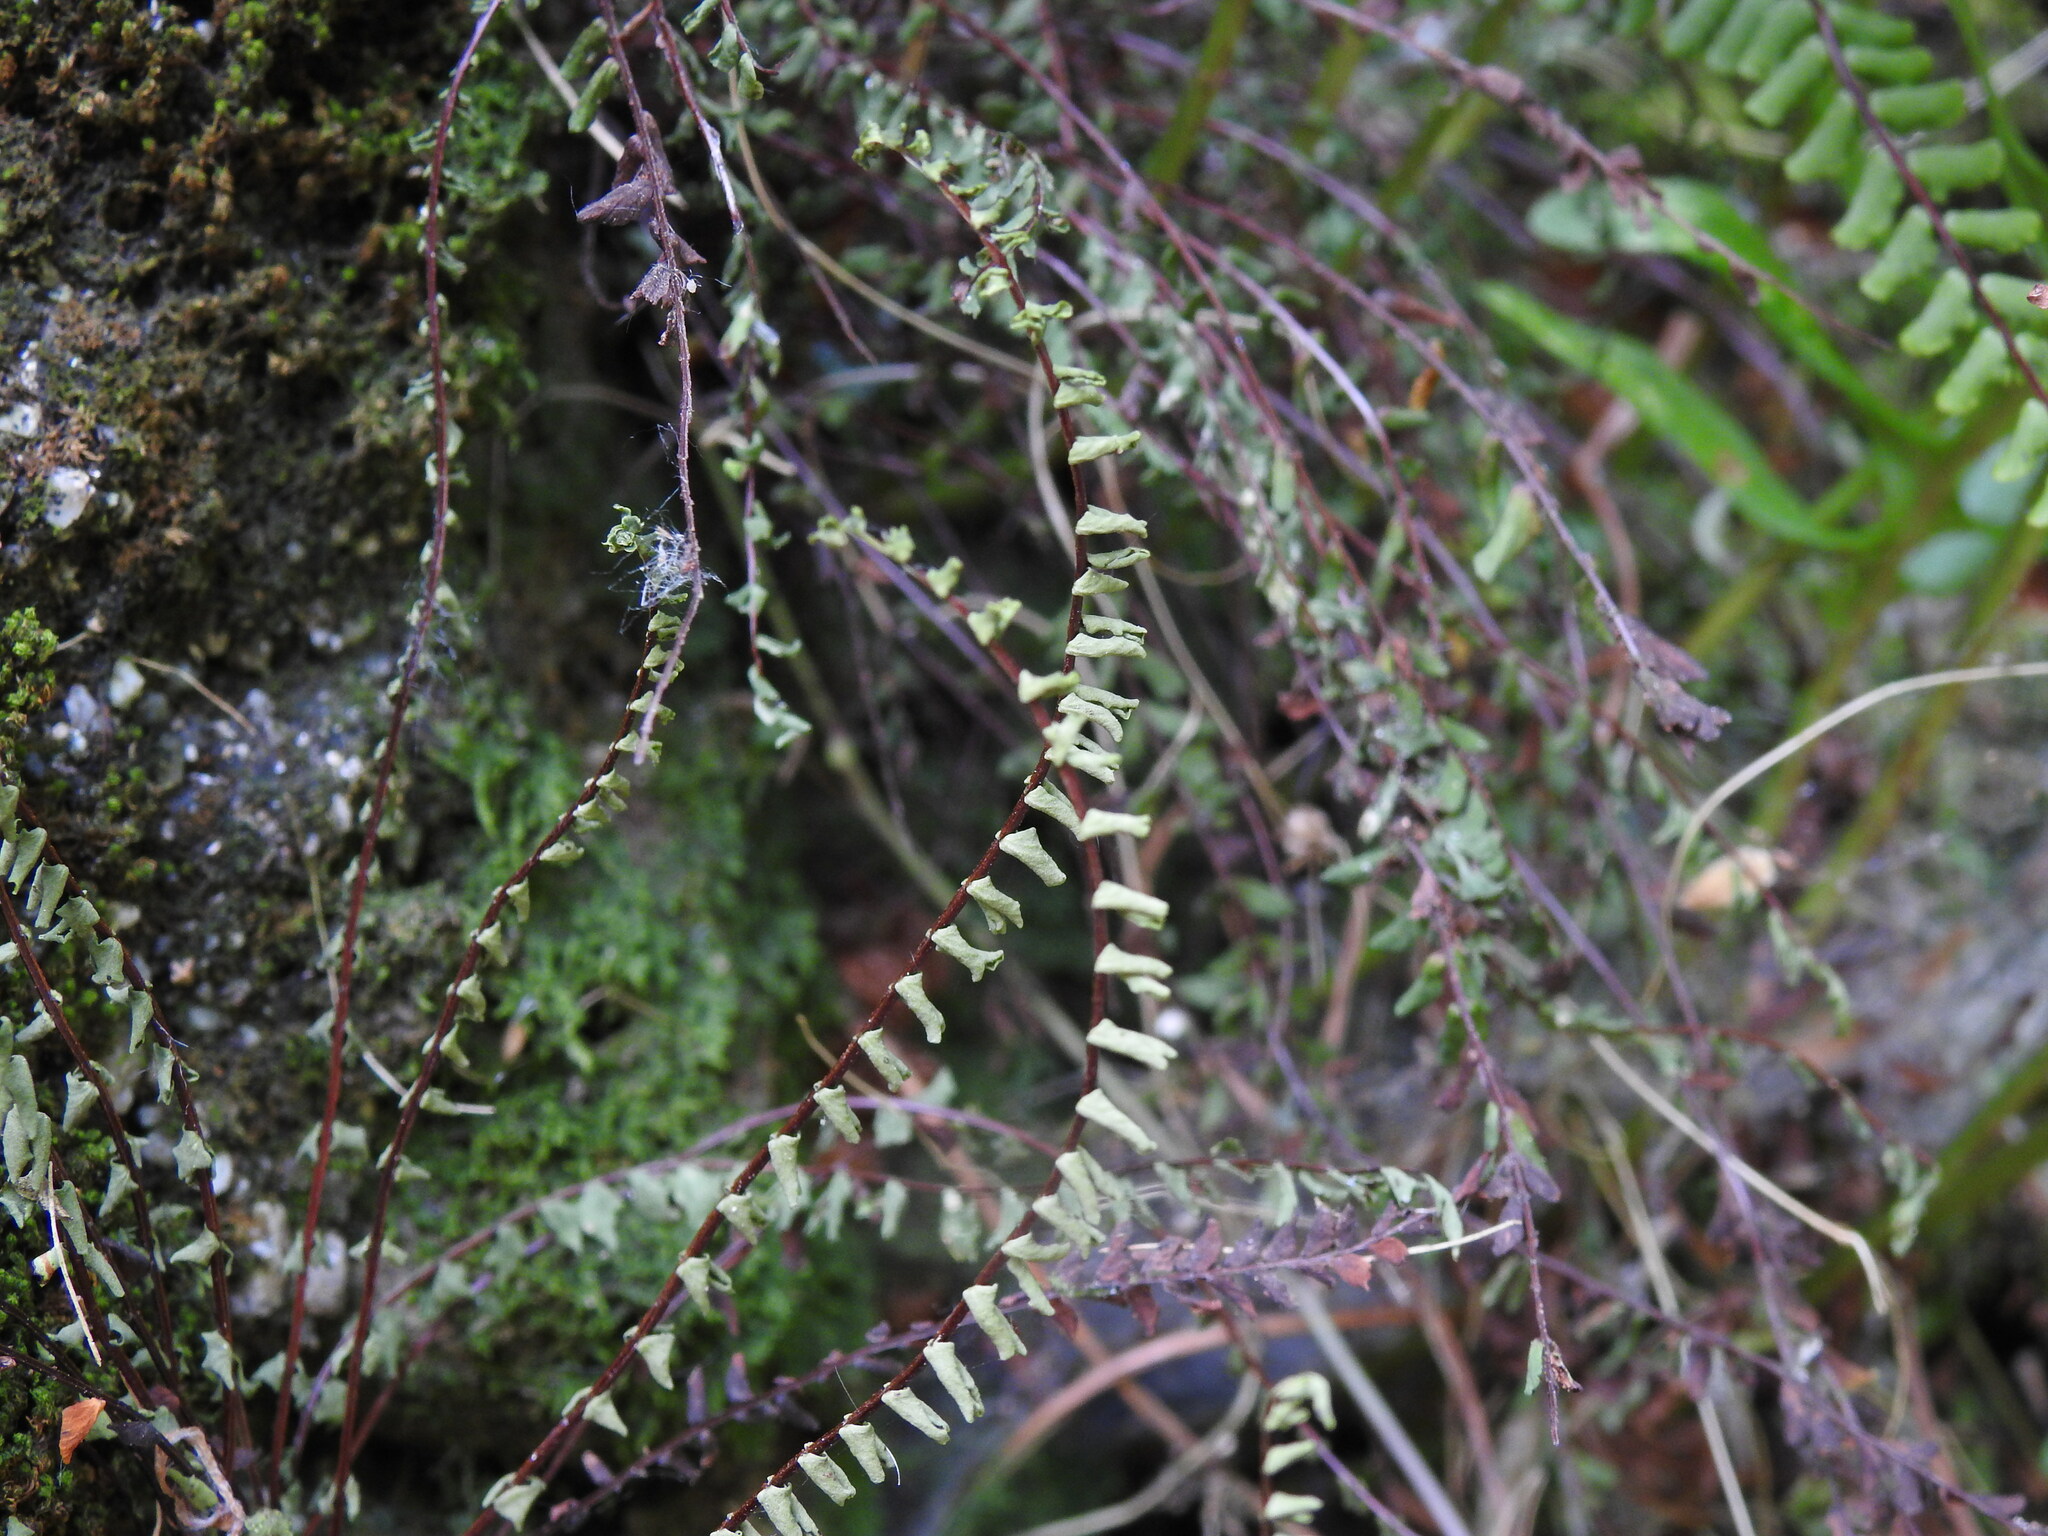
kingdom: Plantae
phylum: Tracheophyta
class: Polypodiopsida
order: Polypodiales
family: Aspleniaceae
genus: Asplenium
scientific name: Asplenium trichomanes
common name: Maidenhair spleenwort
